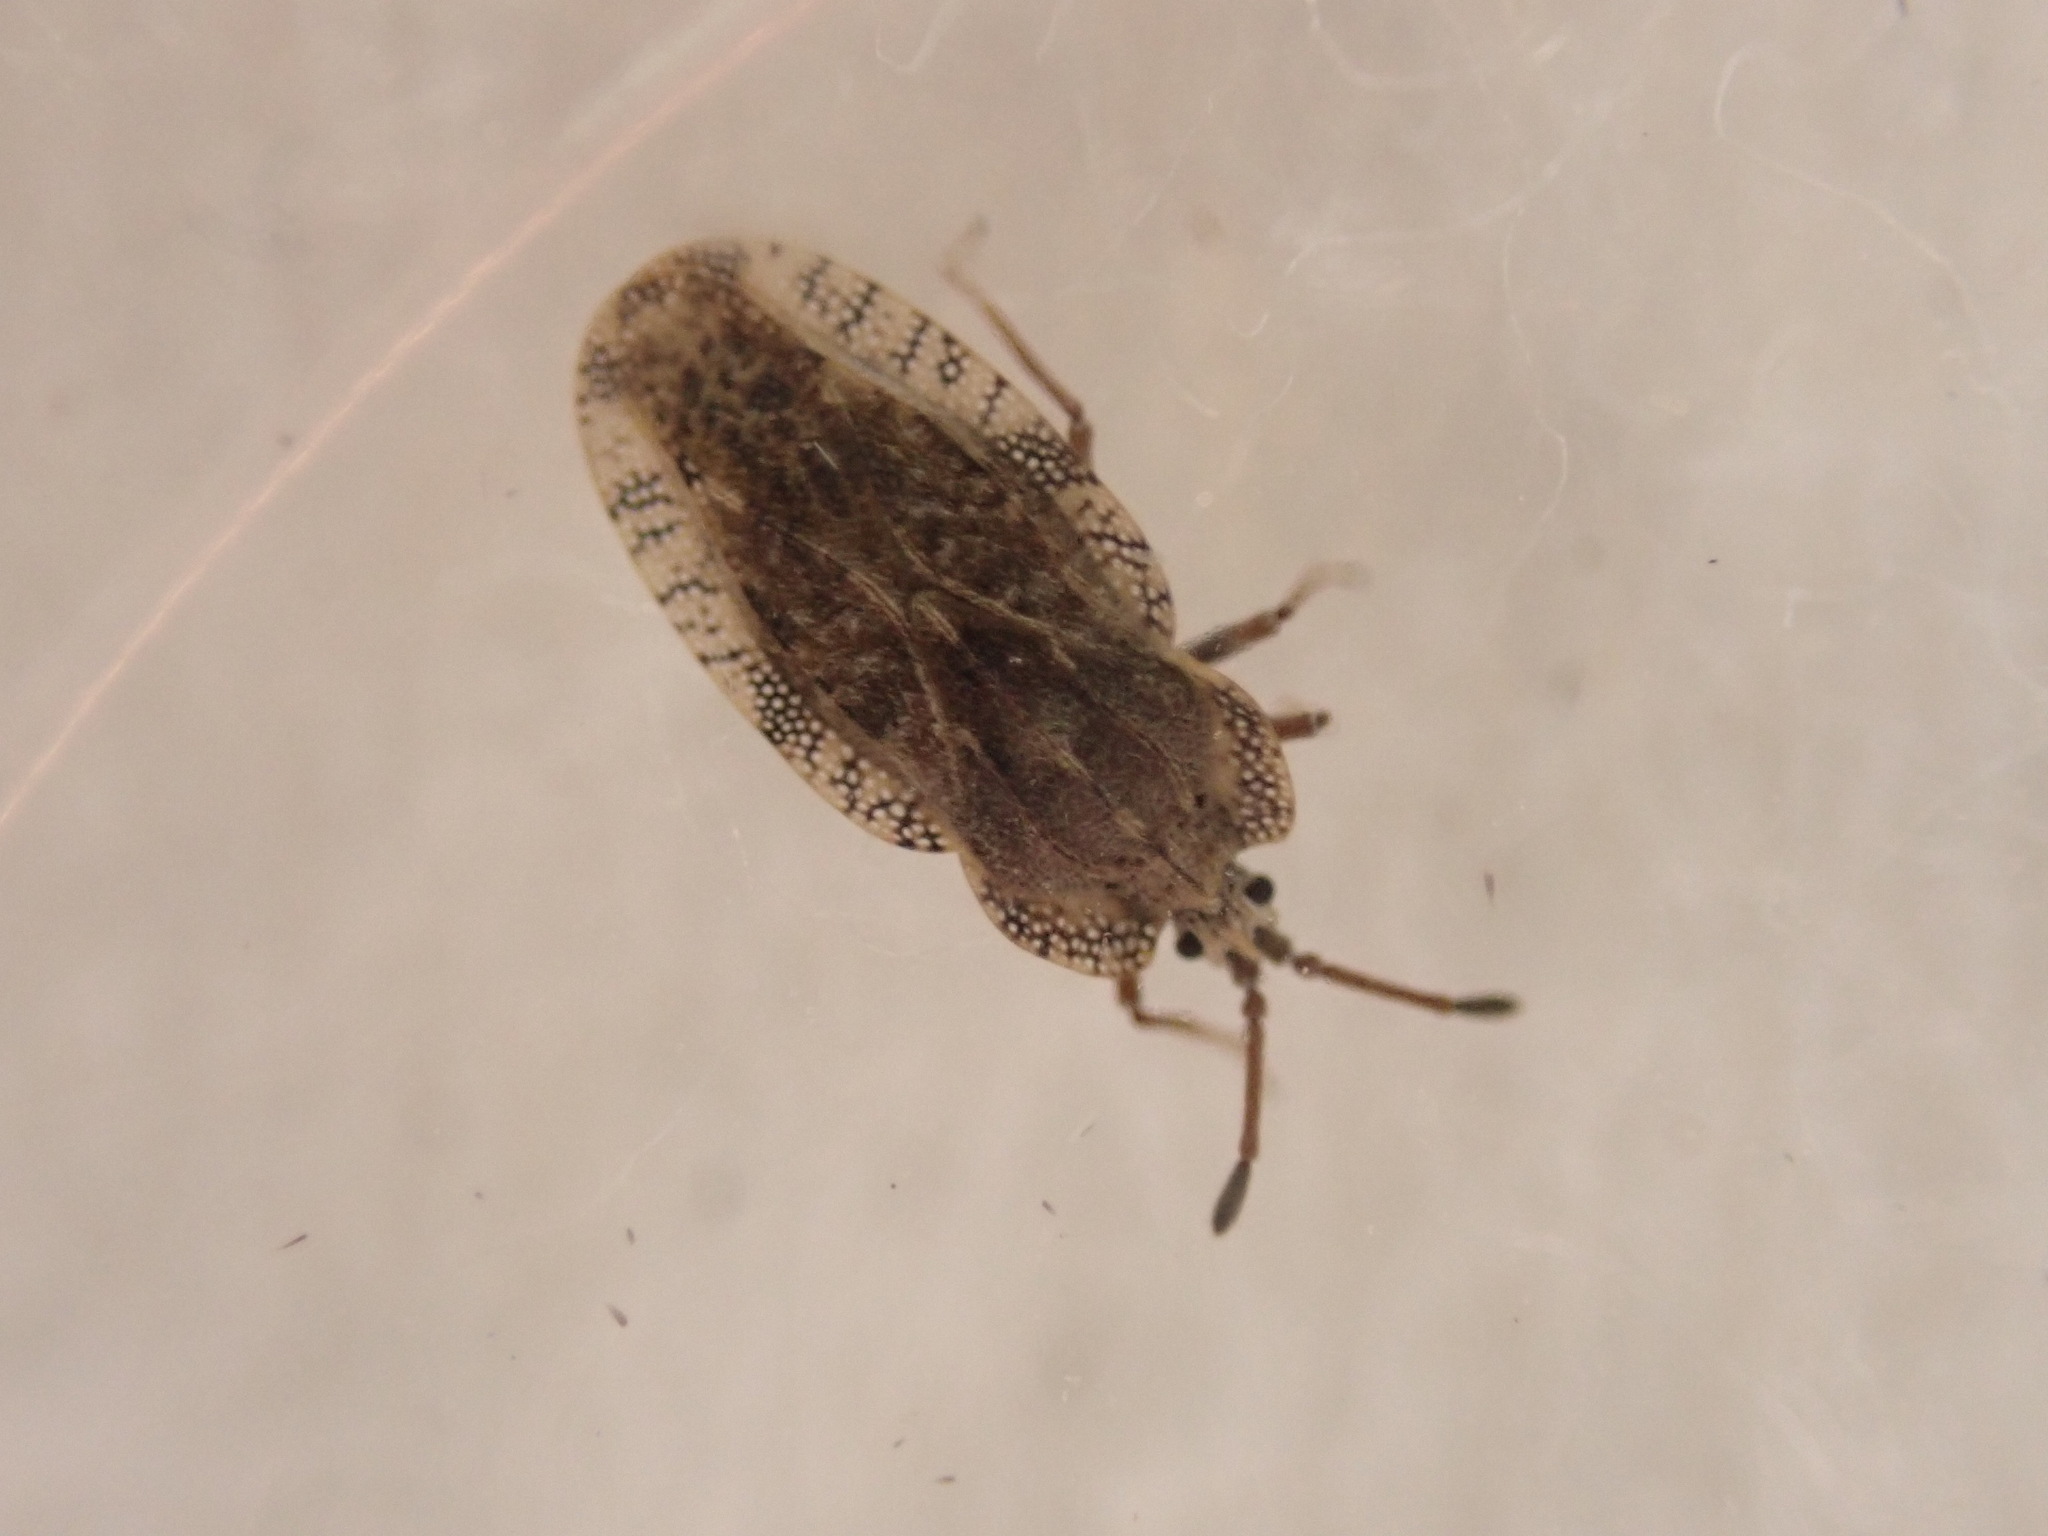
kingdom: Animalia
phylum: Arthropoda
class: Insecta
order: Hemiptera
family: Tingidae
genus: Tingis
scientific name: Tingis ampliata
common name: Creeping thistle lacebug
